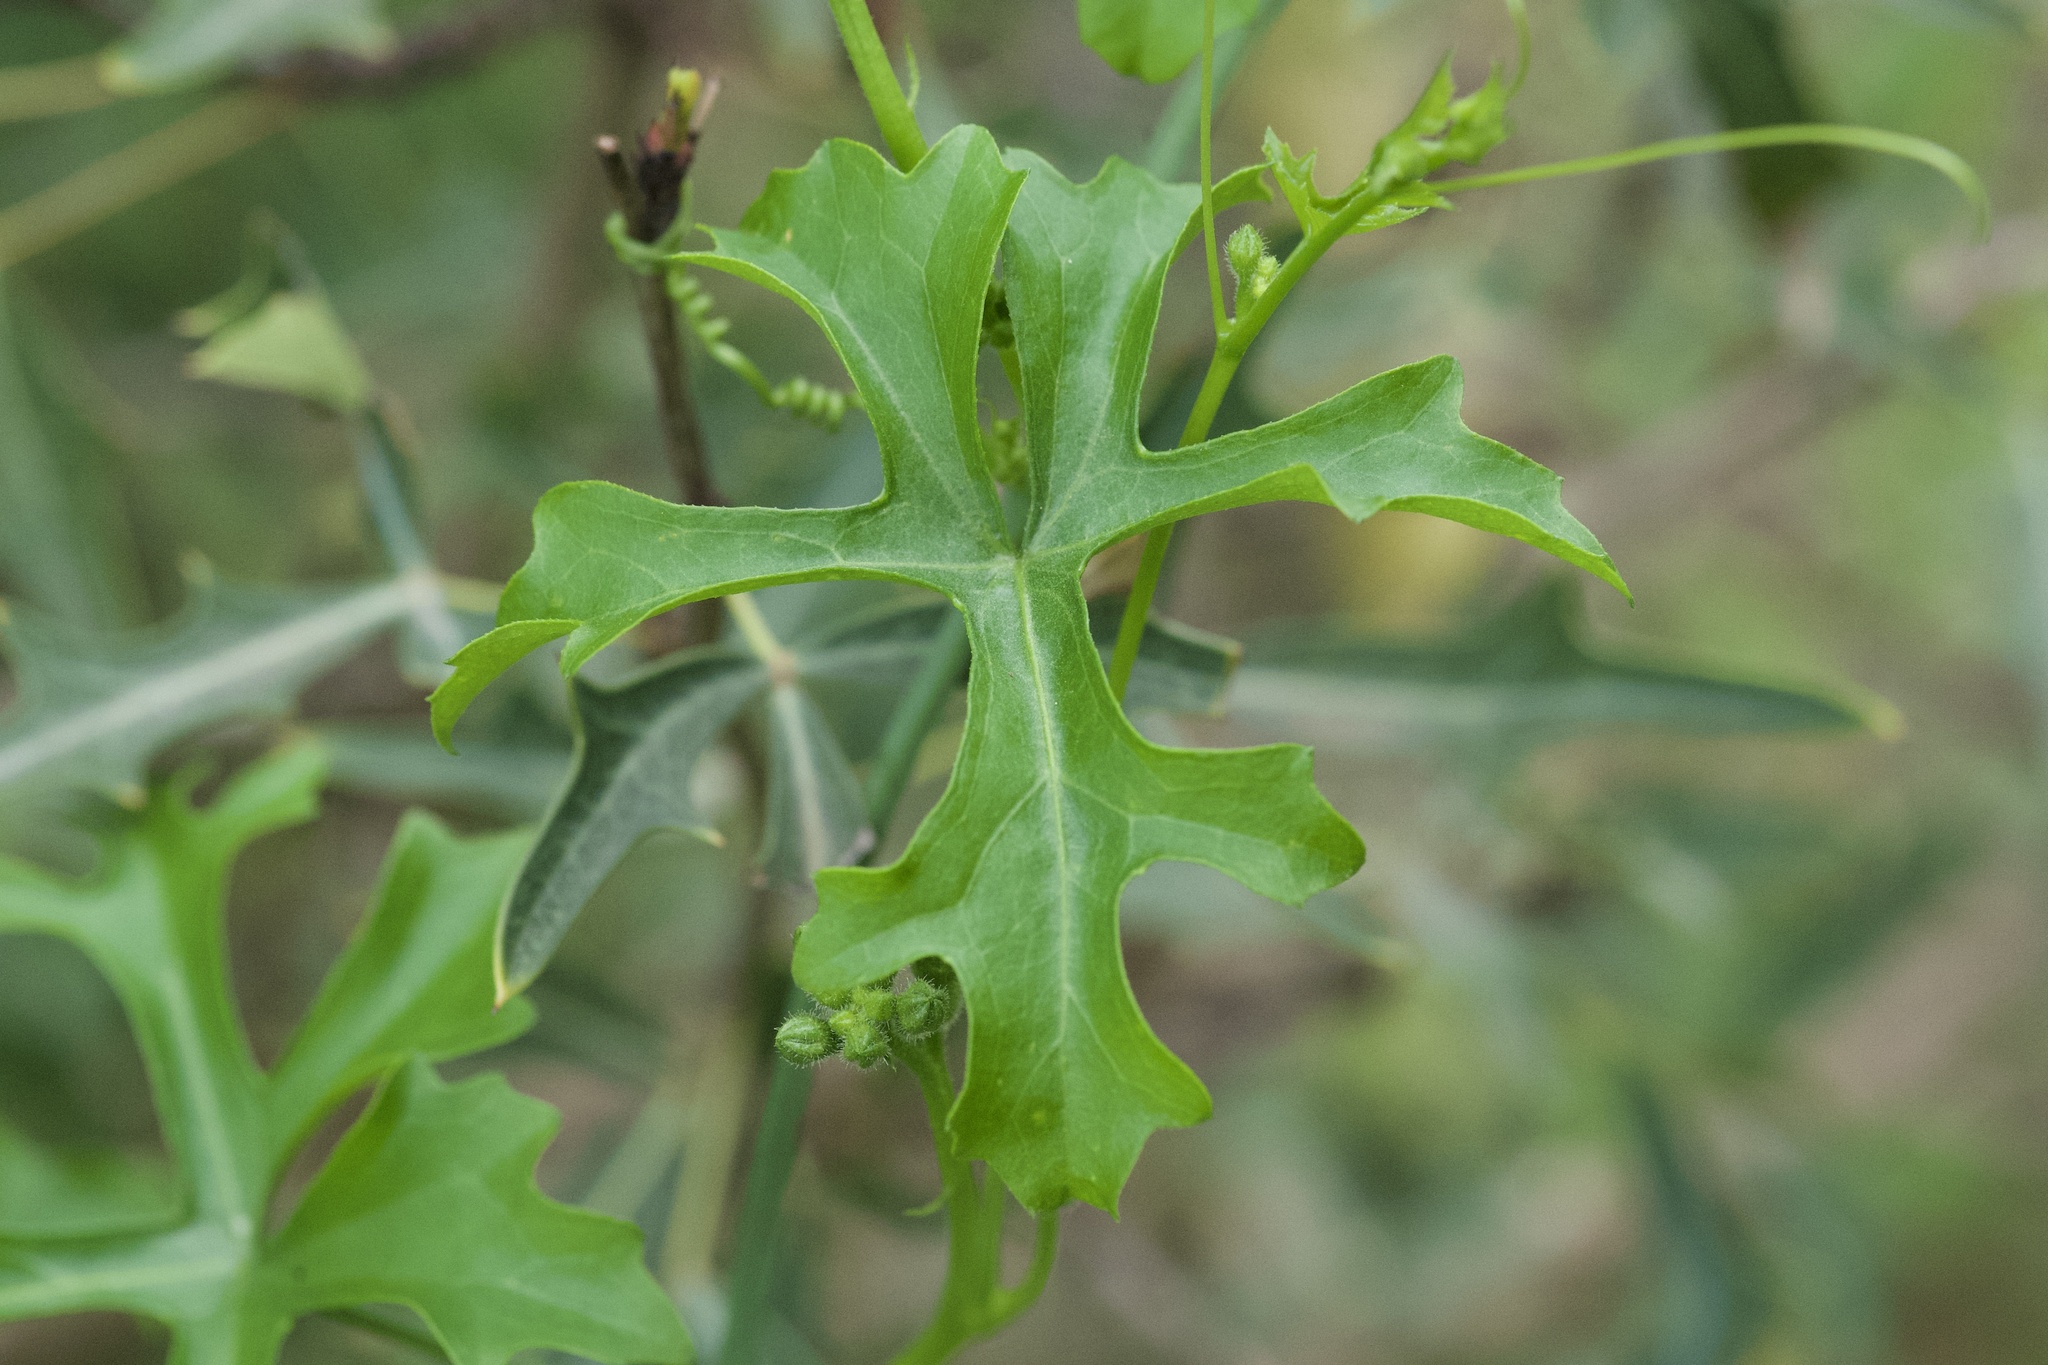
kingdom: Plantae
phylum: Tracheophyta
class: Magnoliopsida
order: Cucurbitales
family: Cucurbitaceae
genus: Ibervillea
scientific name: Ibervillea lindheimeri
